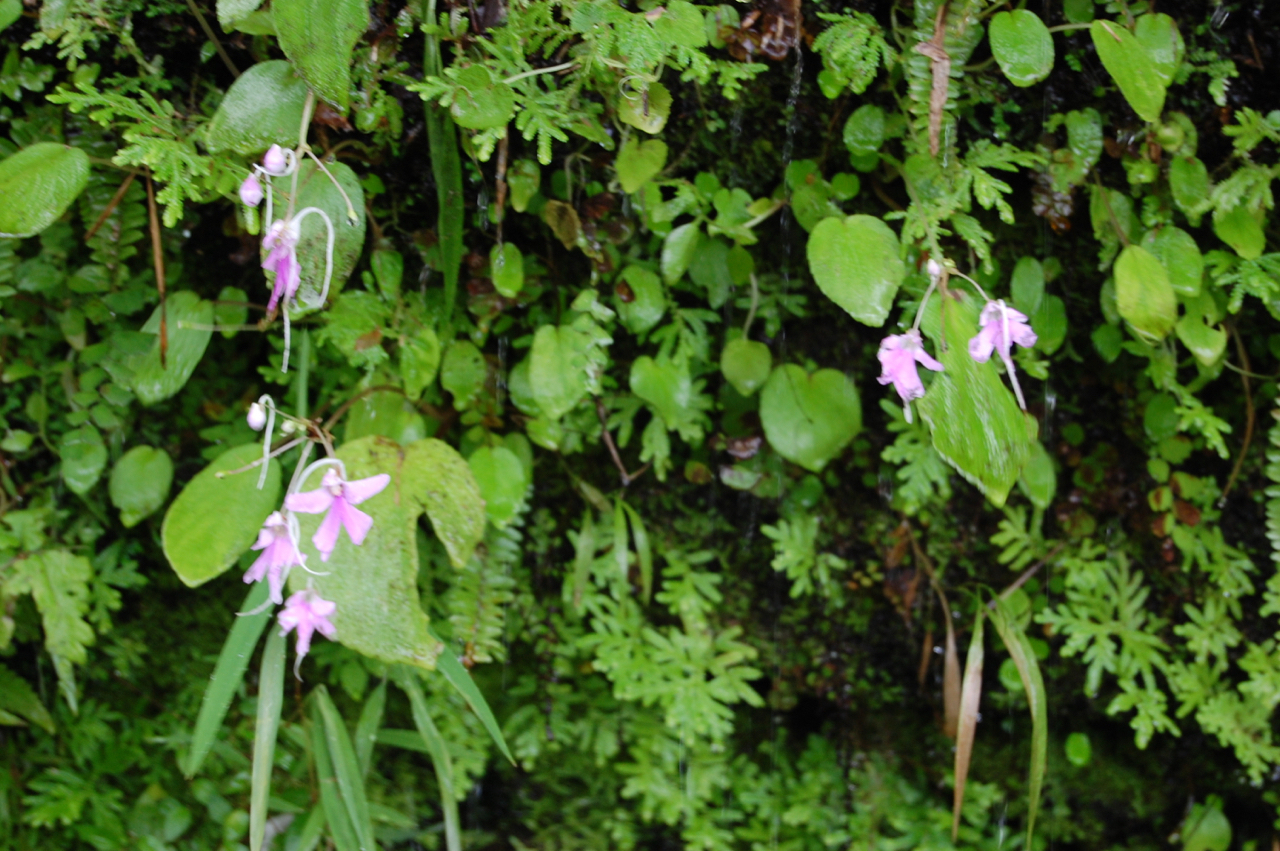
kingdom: Plantae
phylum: Tracheophyta
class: Magnoliopsida
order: Ericales
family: Balsaminaceae
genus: Impatiens
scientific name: Impatiens acaulis
